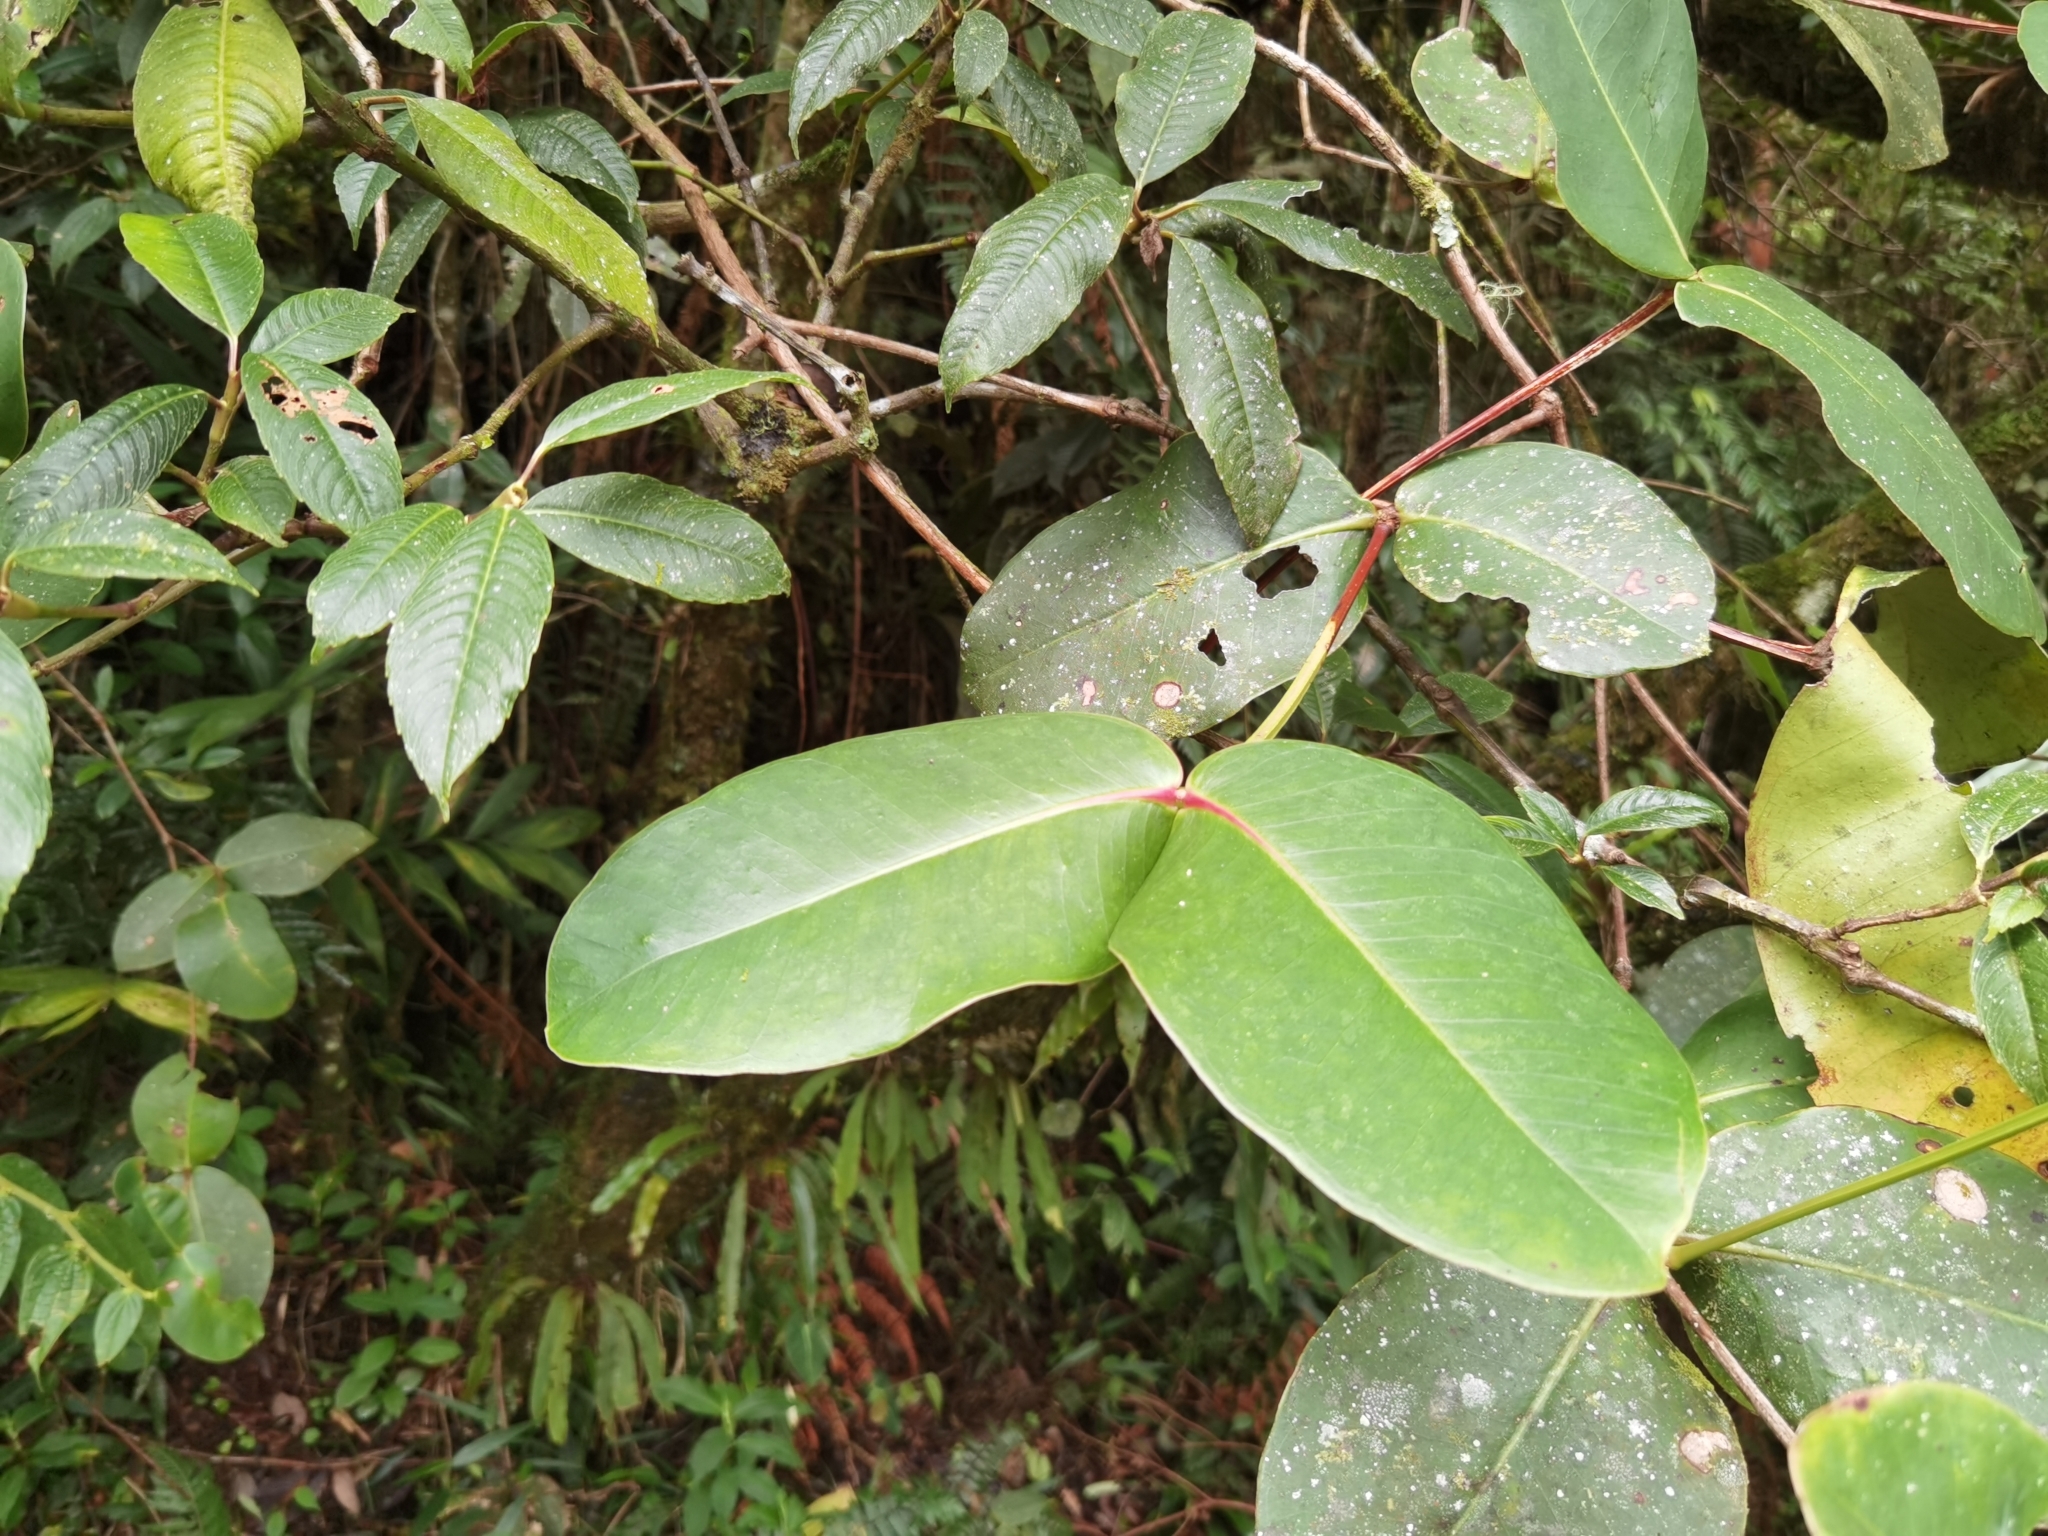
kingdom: Plantae
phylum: Tracheophyta
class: Magnoliopsida
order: Myrtales
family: Alzateaceae
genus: Alzatea
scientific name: Alzatea verticillata
